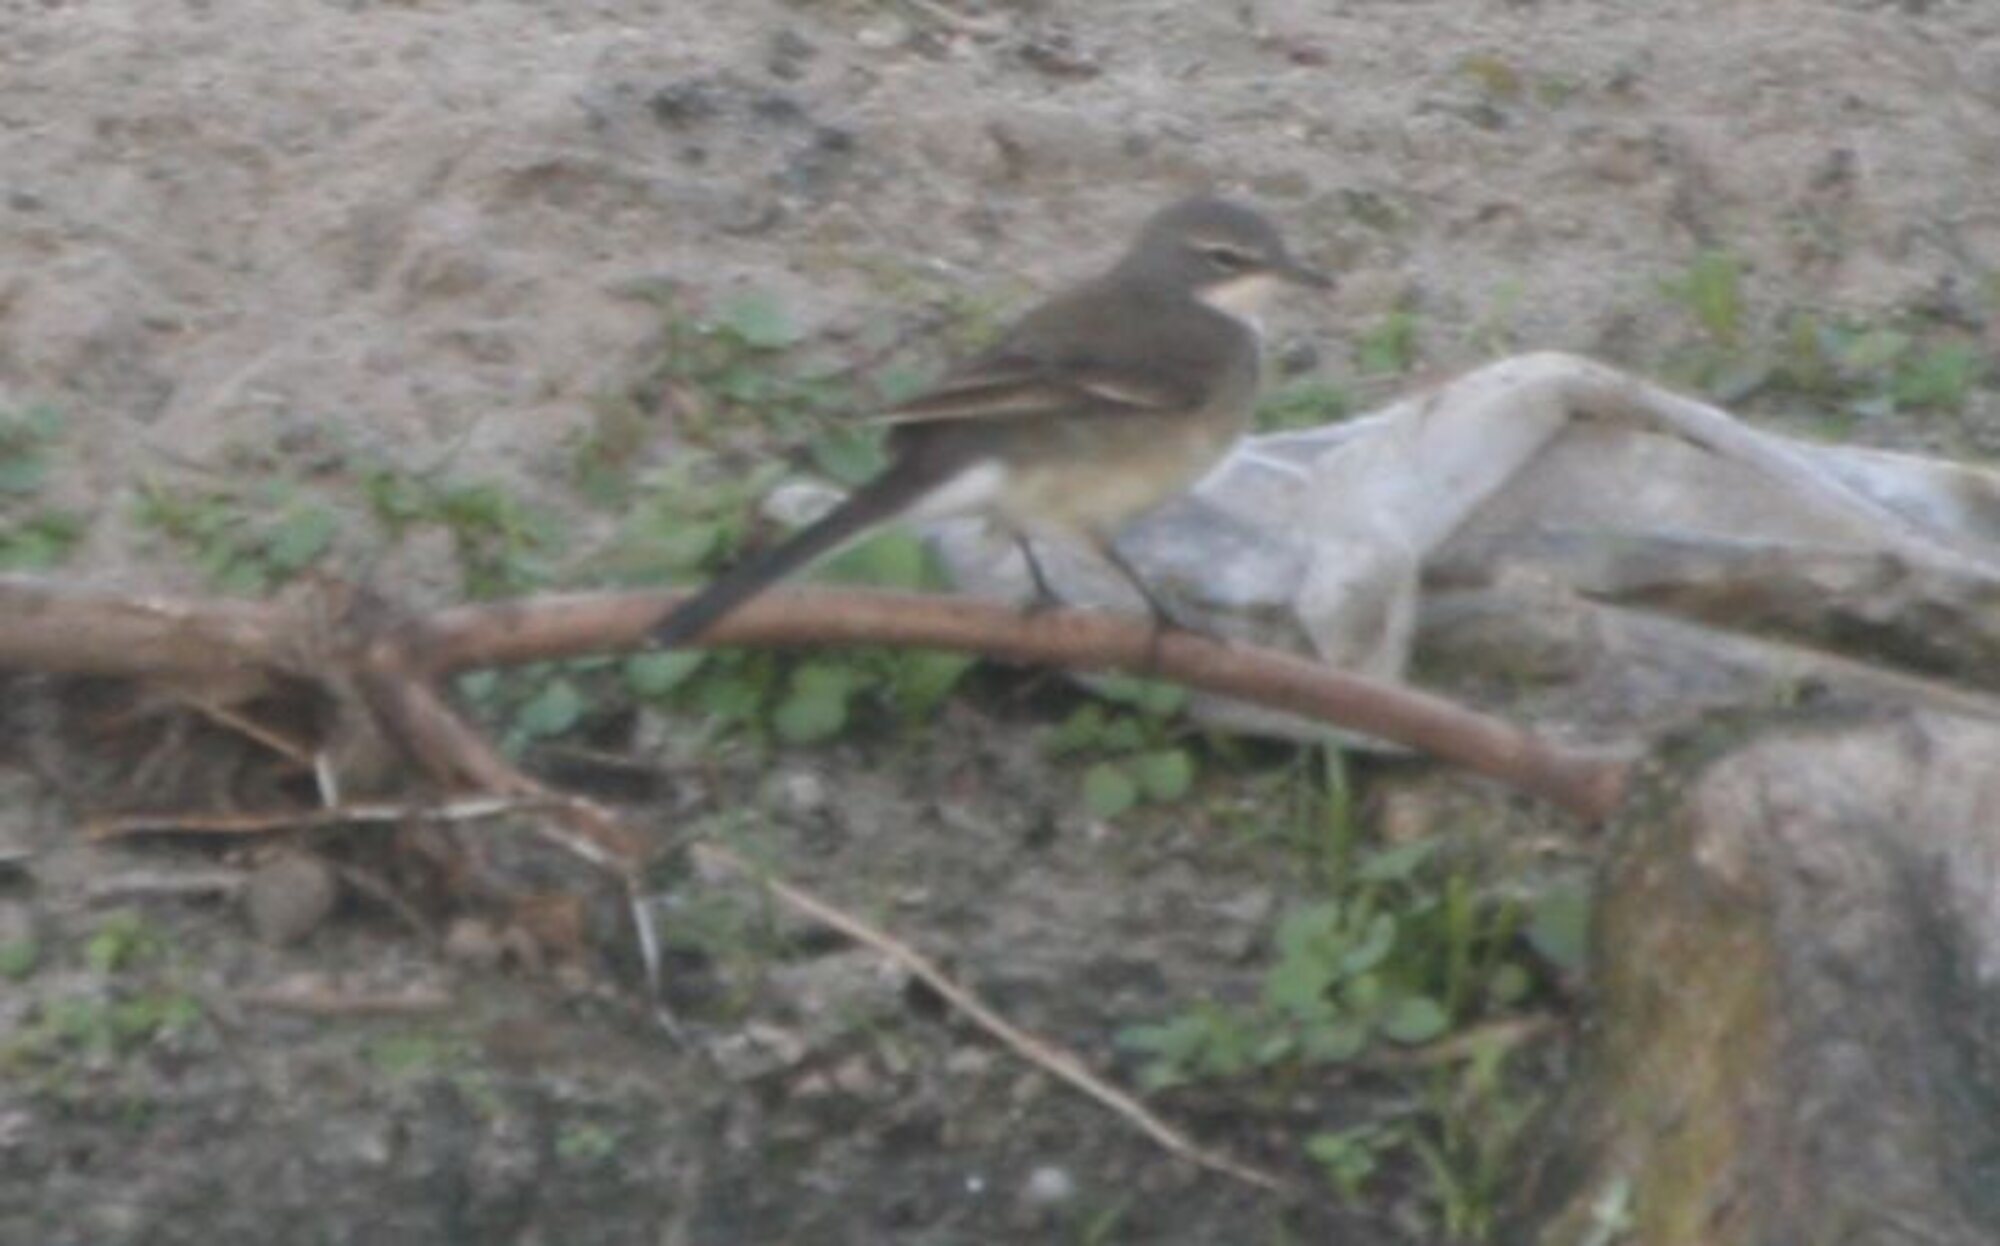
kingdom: Animalia
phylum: Chordata
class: Aves
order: Passeriformes
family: Motacillidae
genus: Motacilla
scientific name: Motacilla capensis
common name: Cape wagtail
